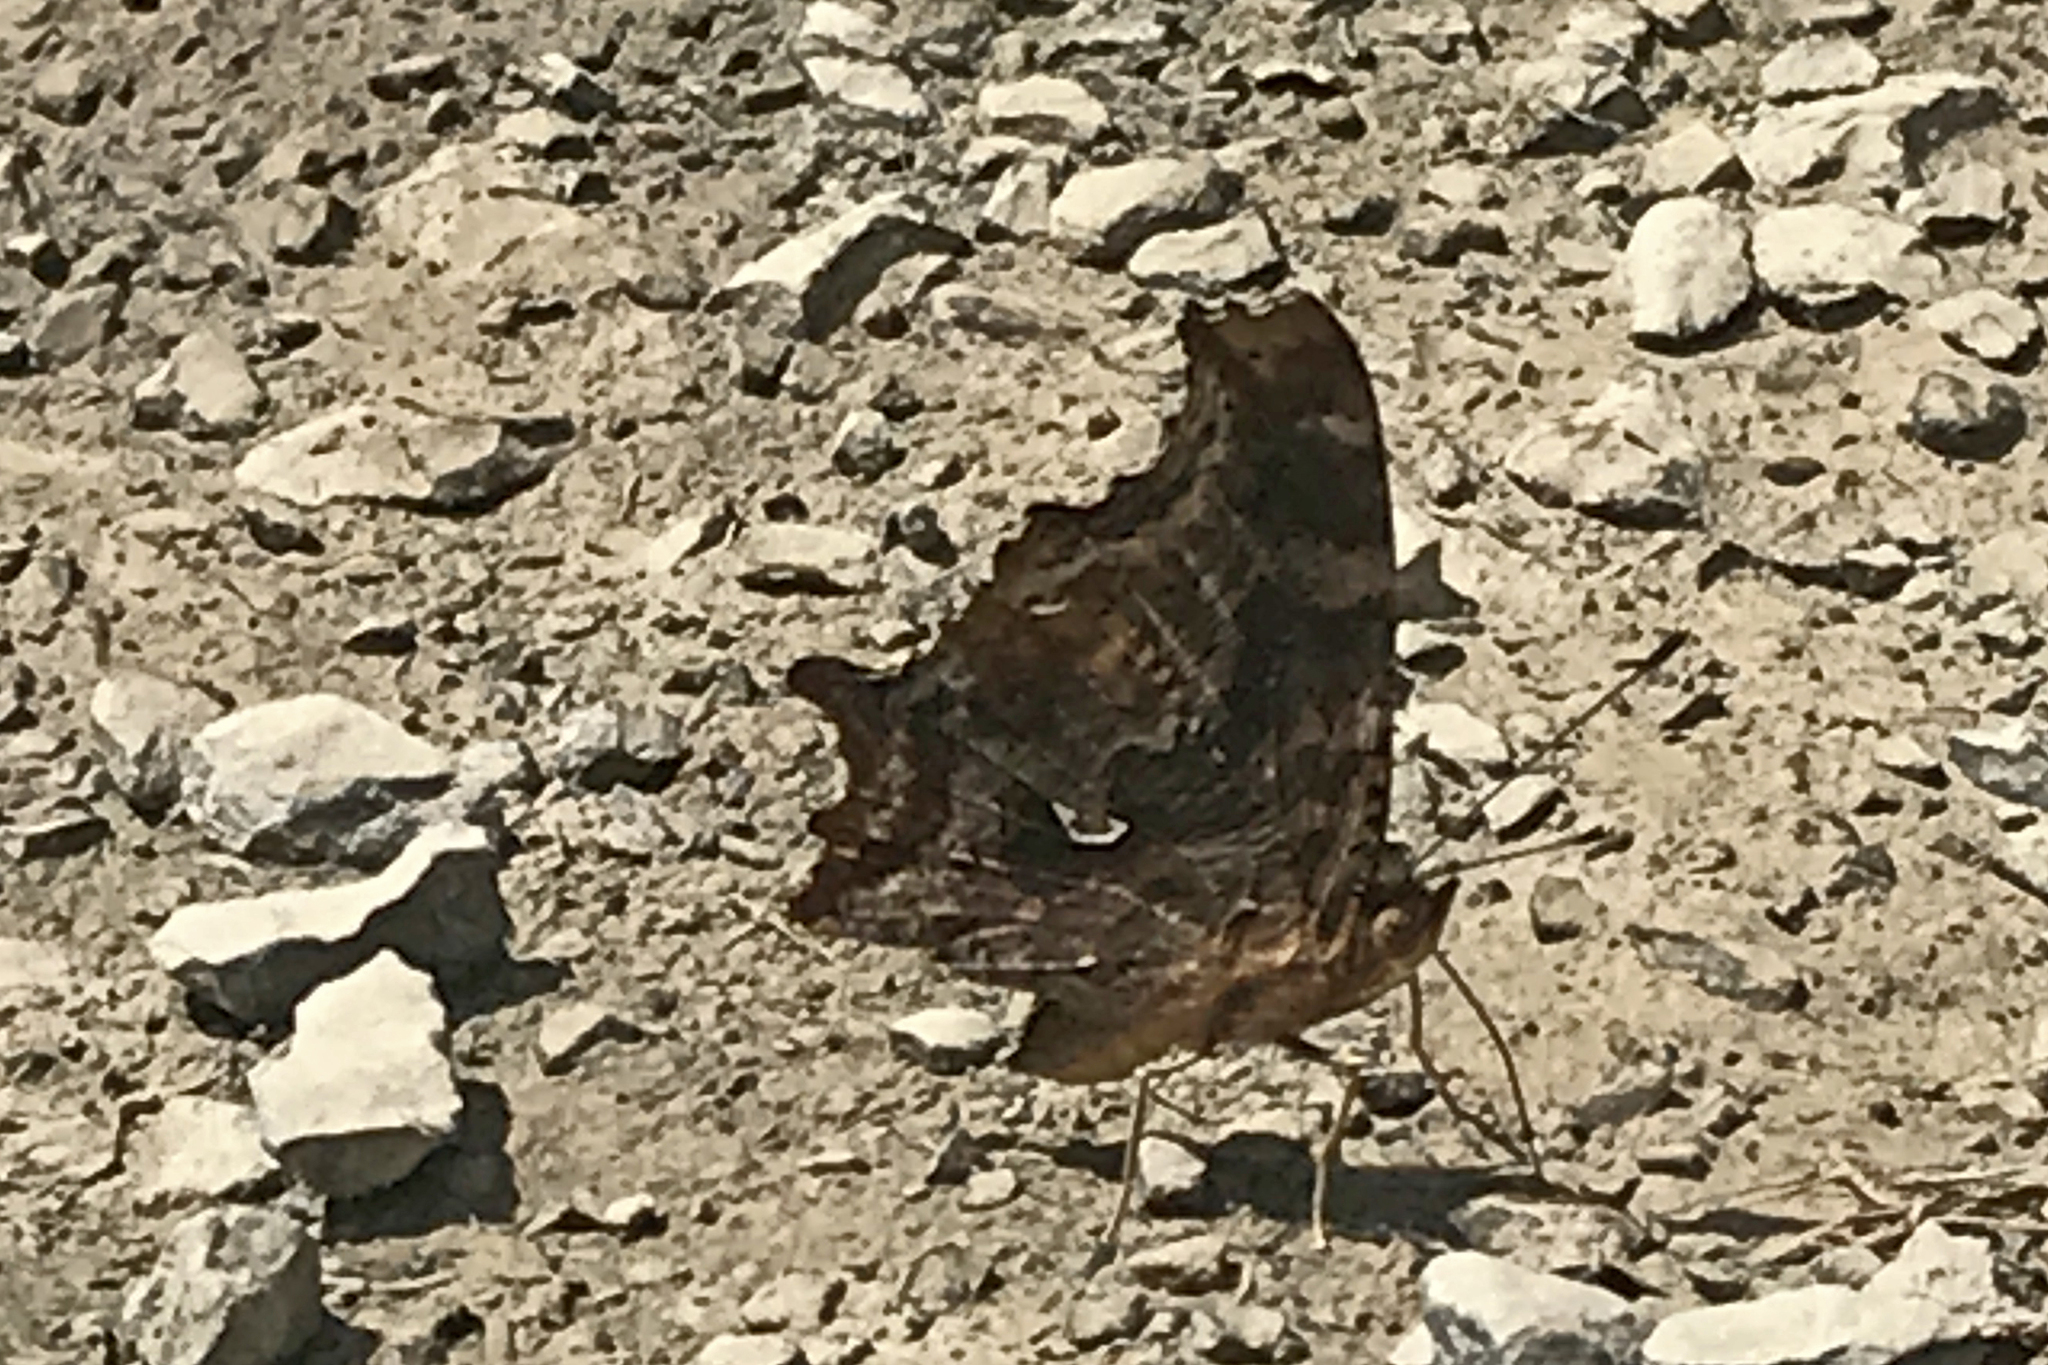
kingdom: Animalia
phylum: Arthropoda
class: Insecta
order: Lepidoptera
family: Nymphalidae
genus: Polygonia
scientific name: Polygonia comma
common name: Eastern comma
